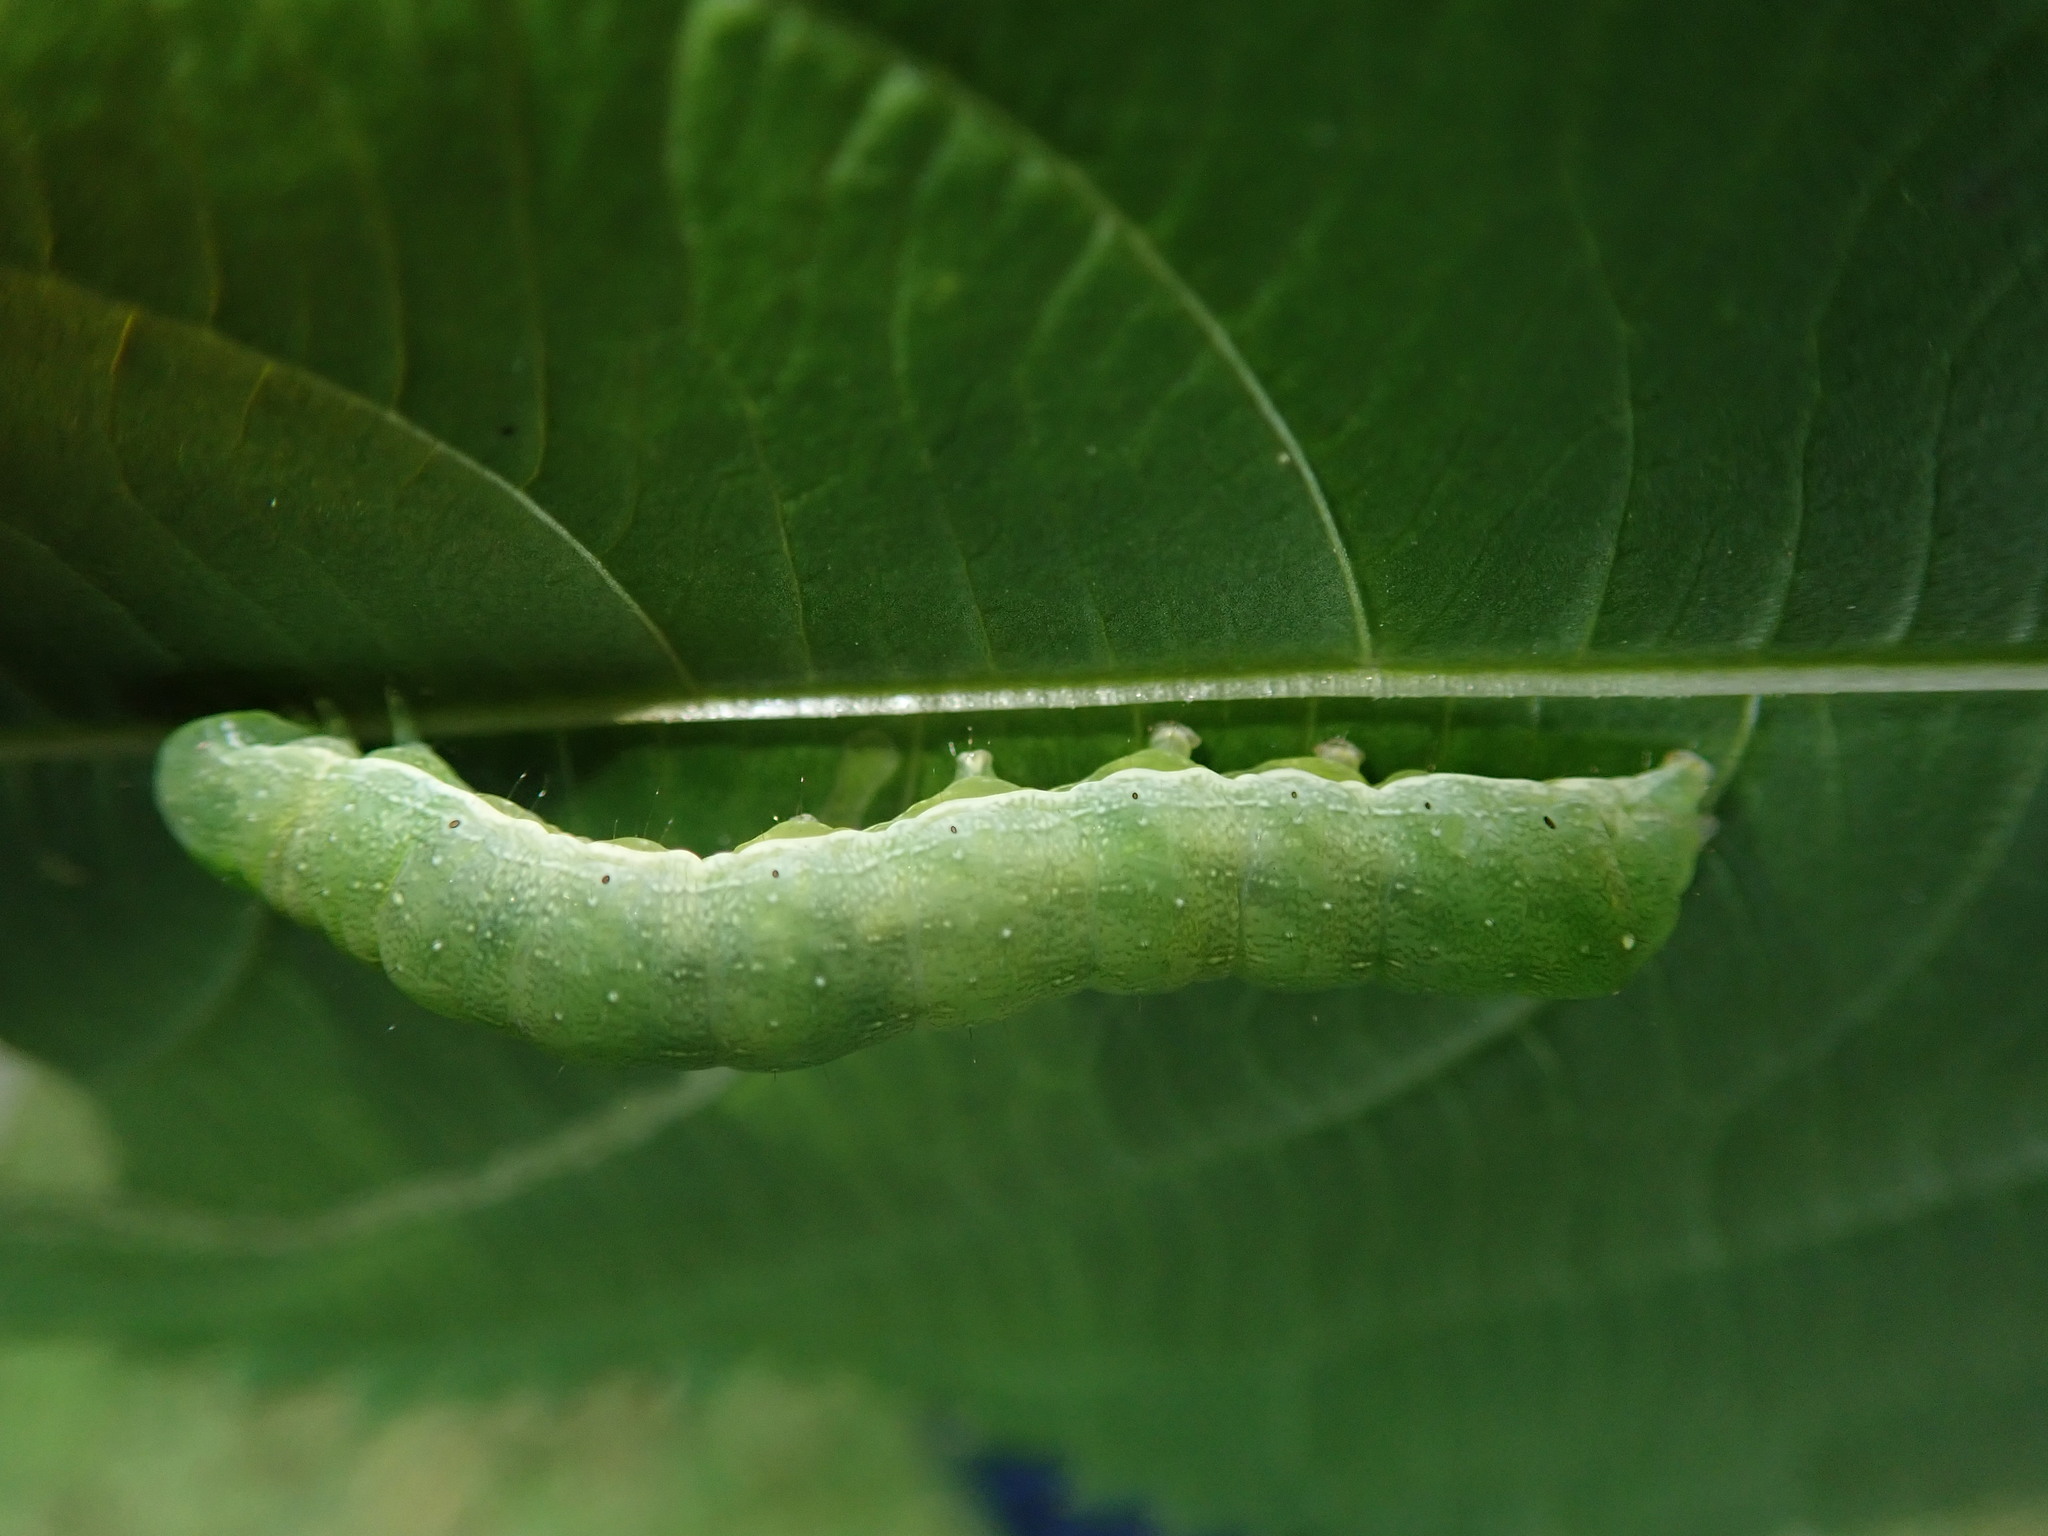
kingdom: Animalia
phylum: Arthropoda
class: Insecta
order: Lepidoptera
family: Noctuidae
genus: Euplexia
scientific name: Euplexia lucipara
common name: Small angle shades
